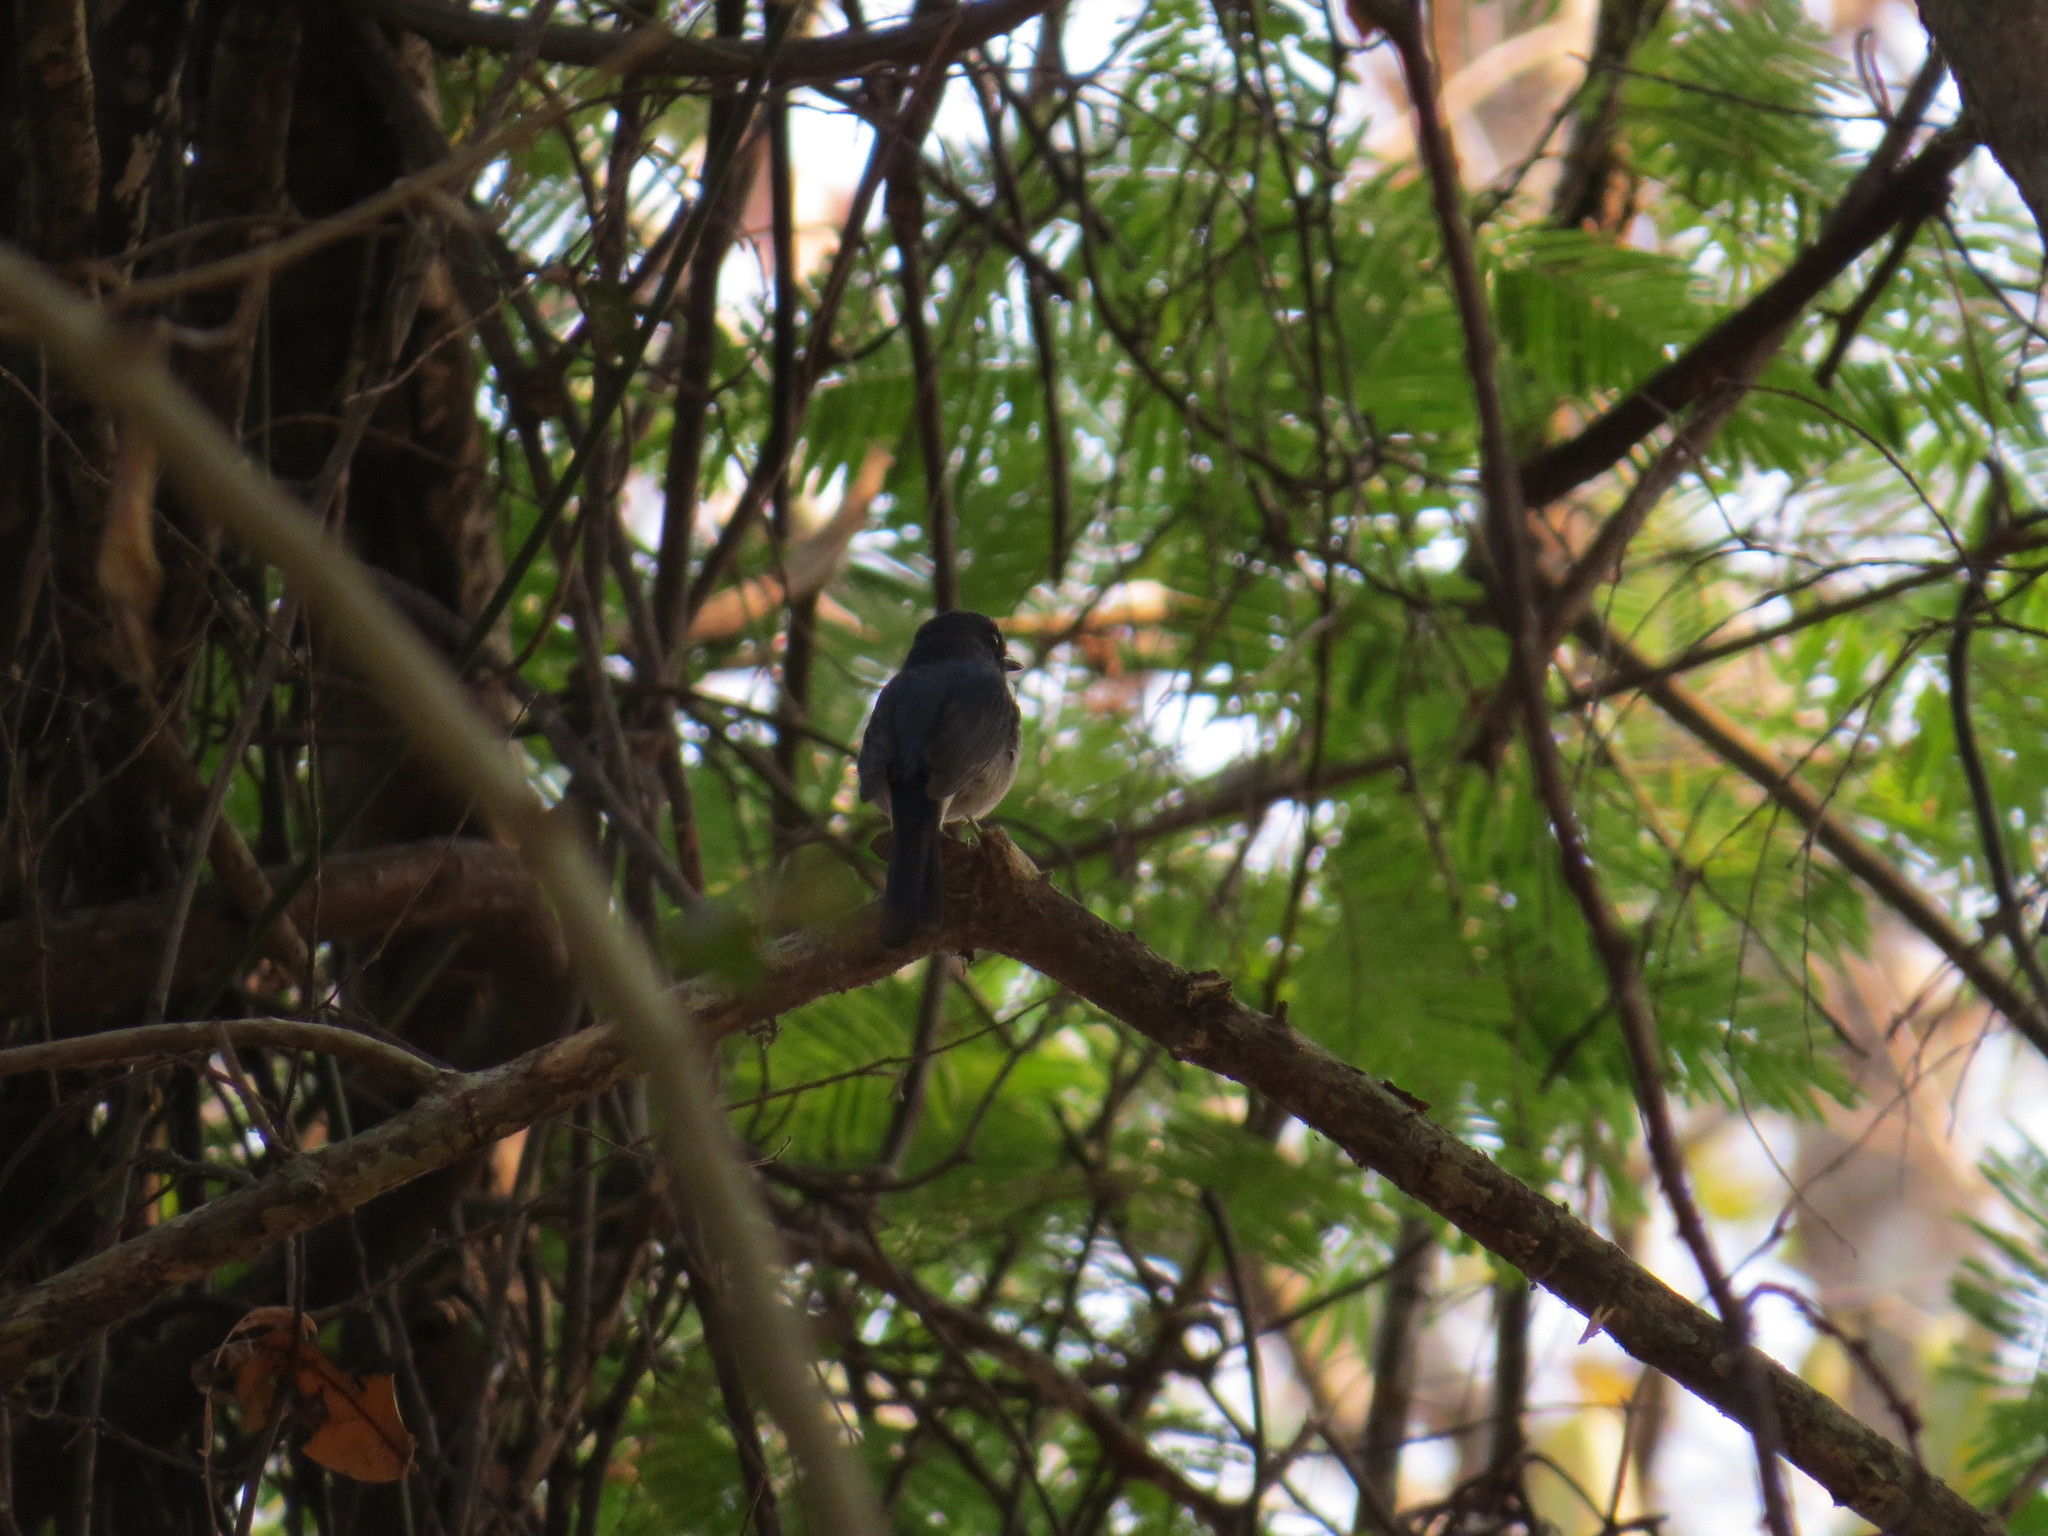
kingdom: Animalia
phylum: Chordata
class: Aves
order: Passeriformes
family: Muscicapidae
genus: Cyornis
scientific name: Cyornis hainanus
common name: Hainan blue flycatcher
